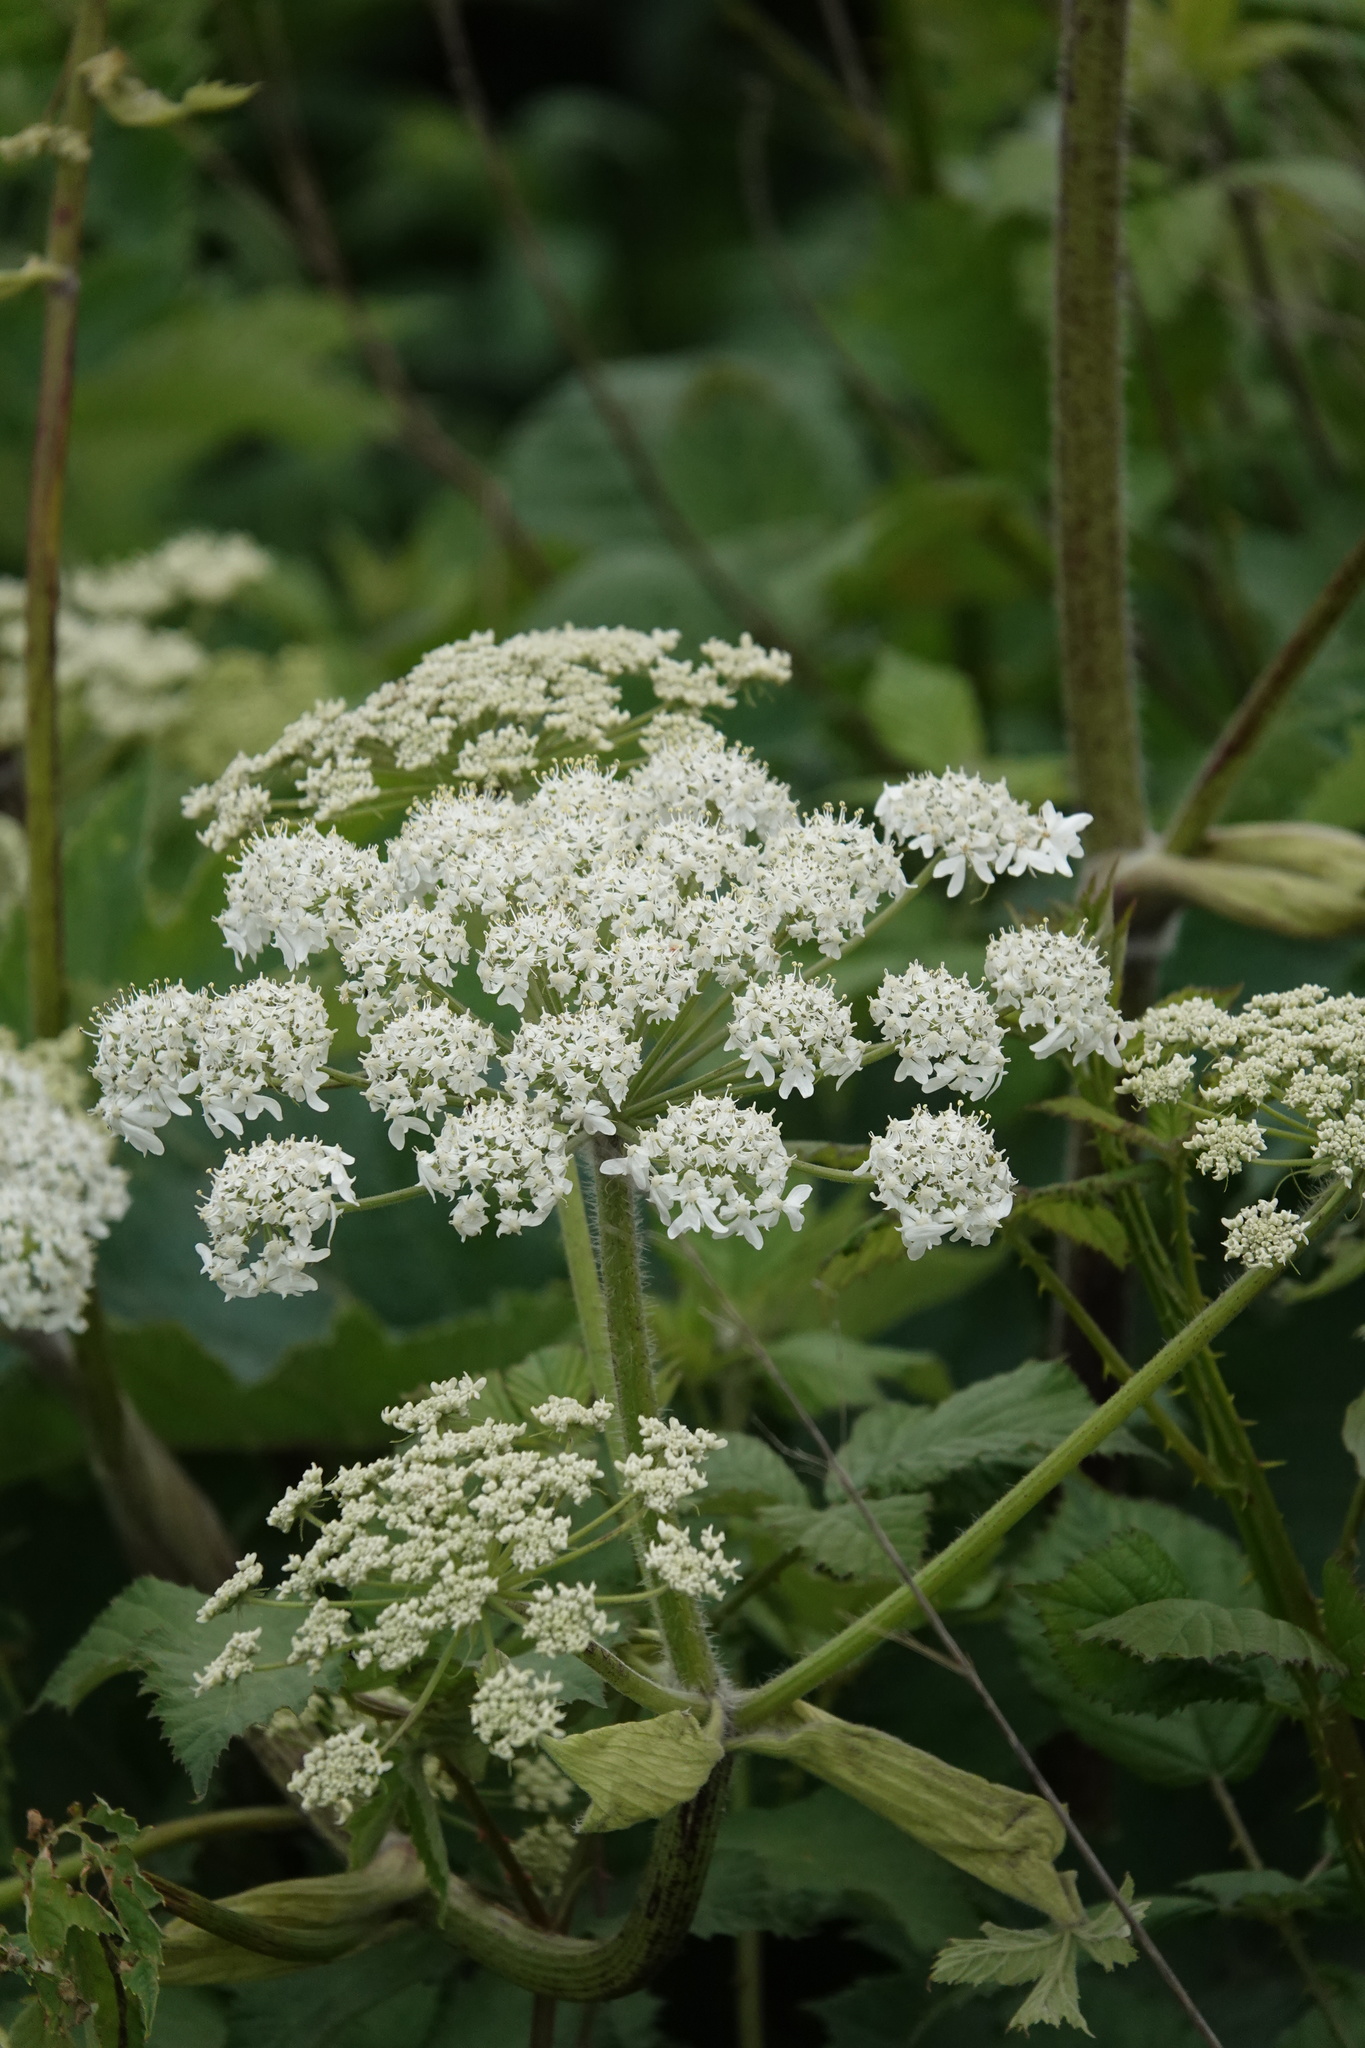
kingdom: Plantae
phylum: Tracheophyta
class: Magnoliopsida
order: Apiales
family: Apiaceae
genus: Heracleum
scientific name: Heracleum maximum
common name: American cow parsnip
